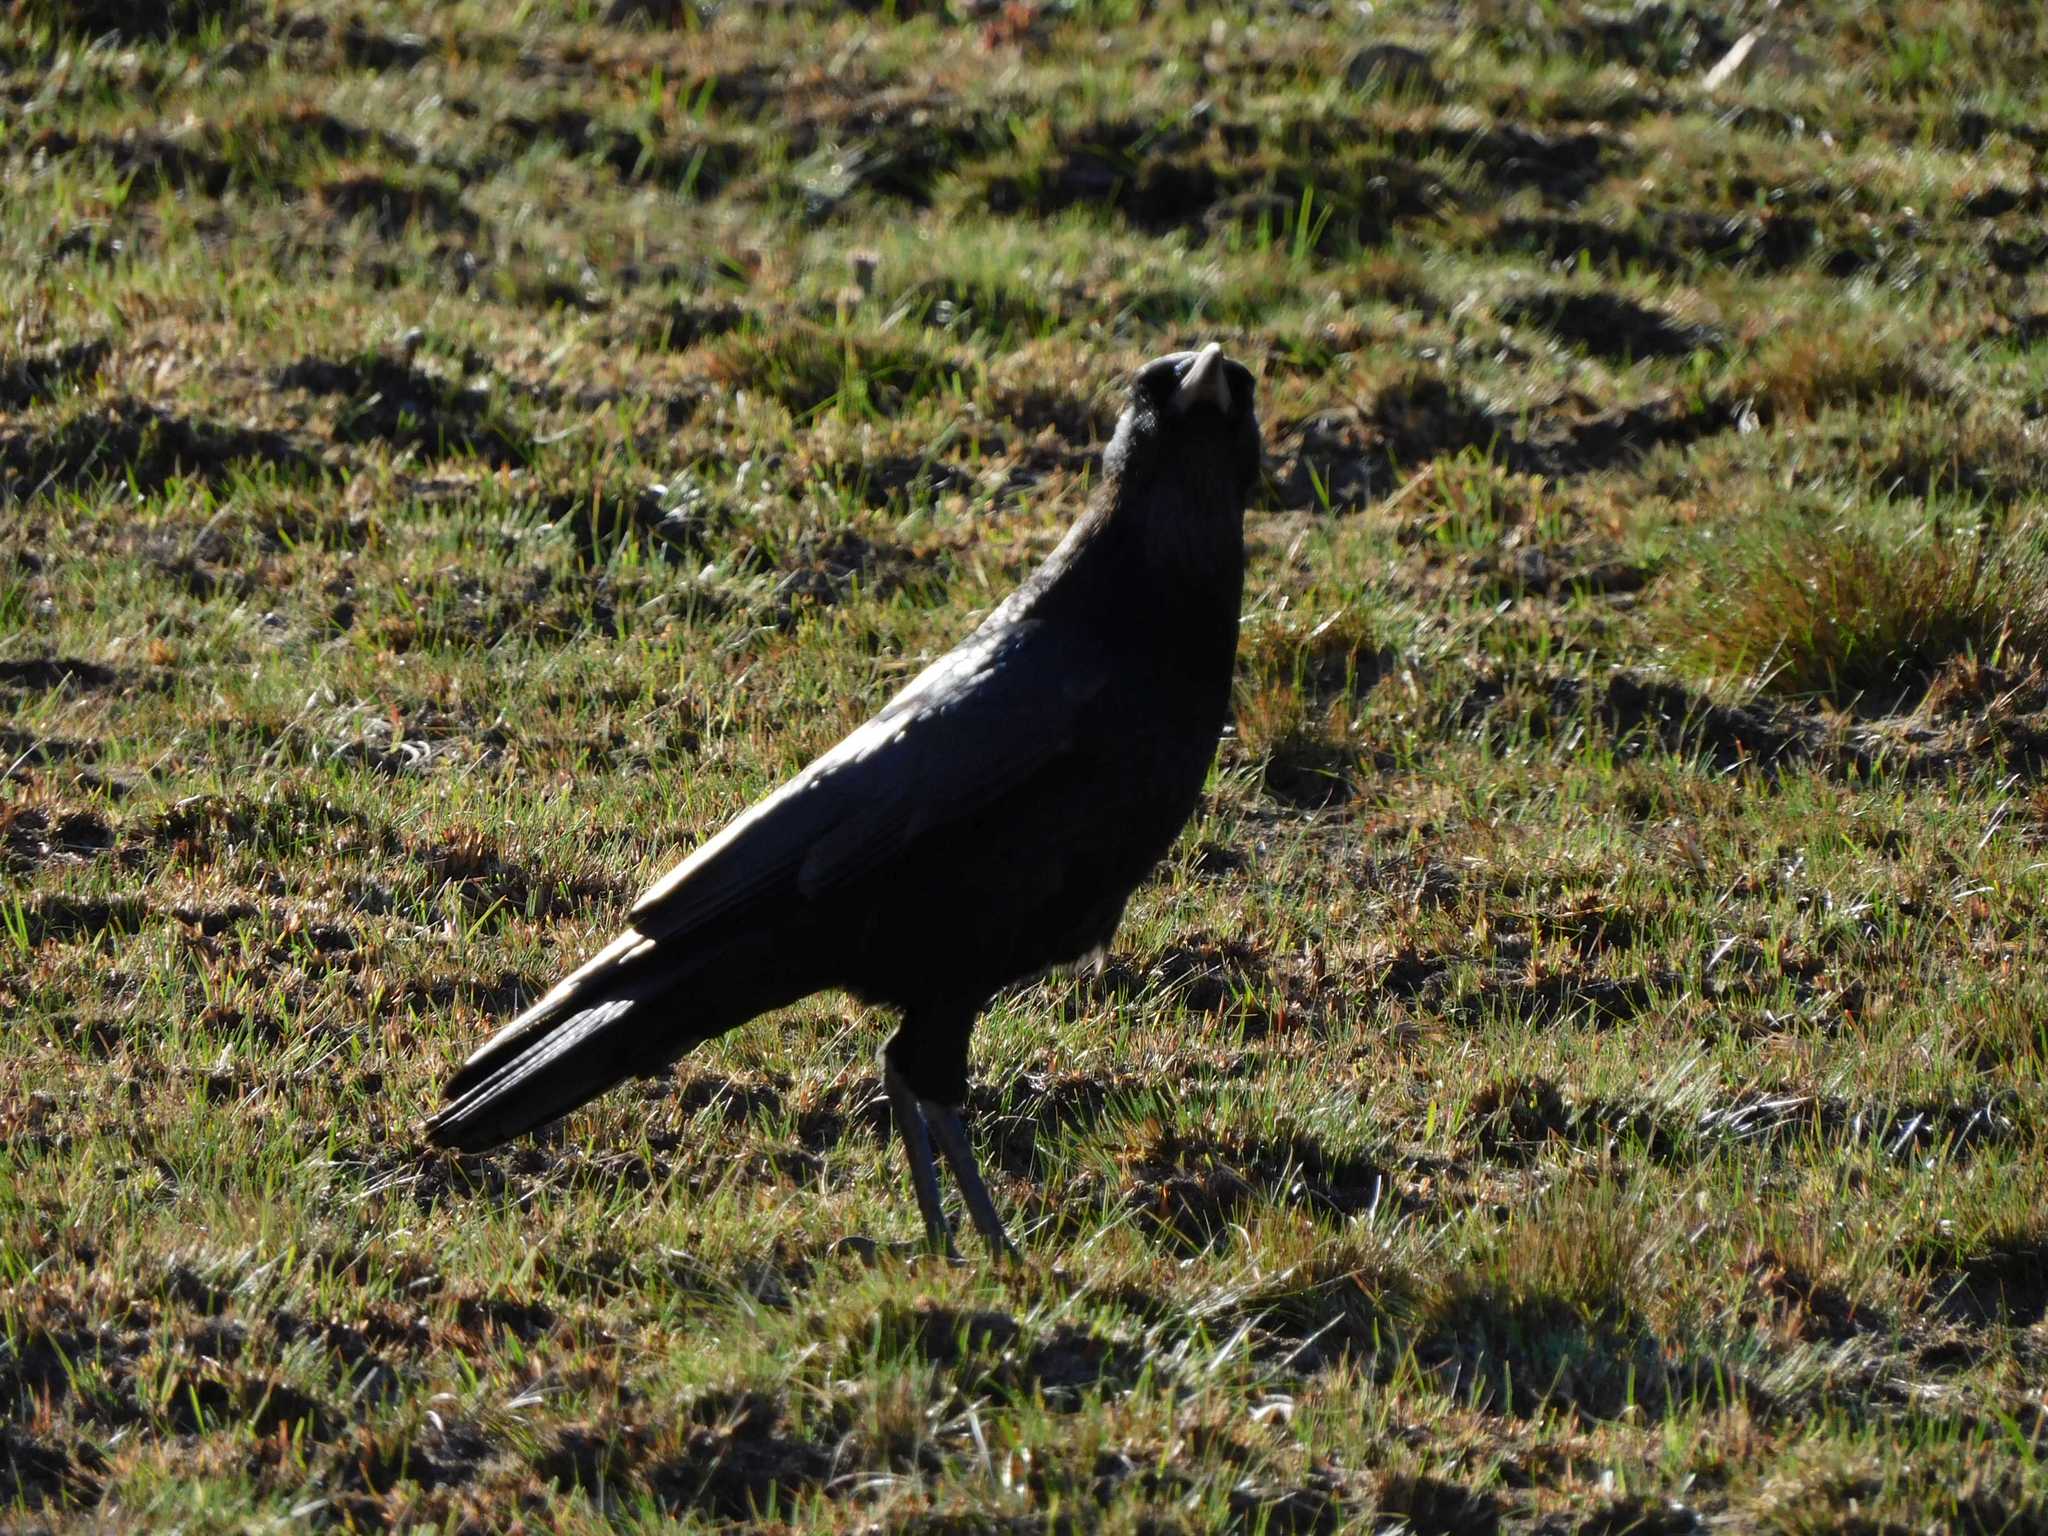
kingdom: Animalia
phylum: Chordata
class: Aves
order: Passeriformes
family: Corvidae
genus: Corvus
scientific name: Corvus capensis
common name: Cape crow
